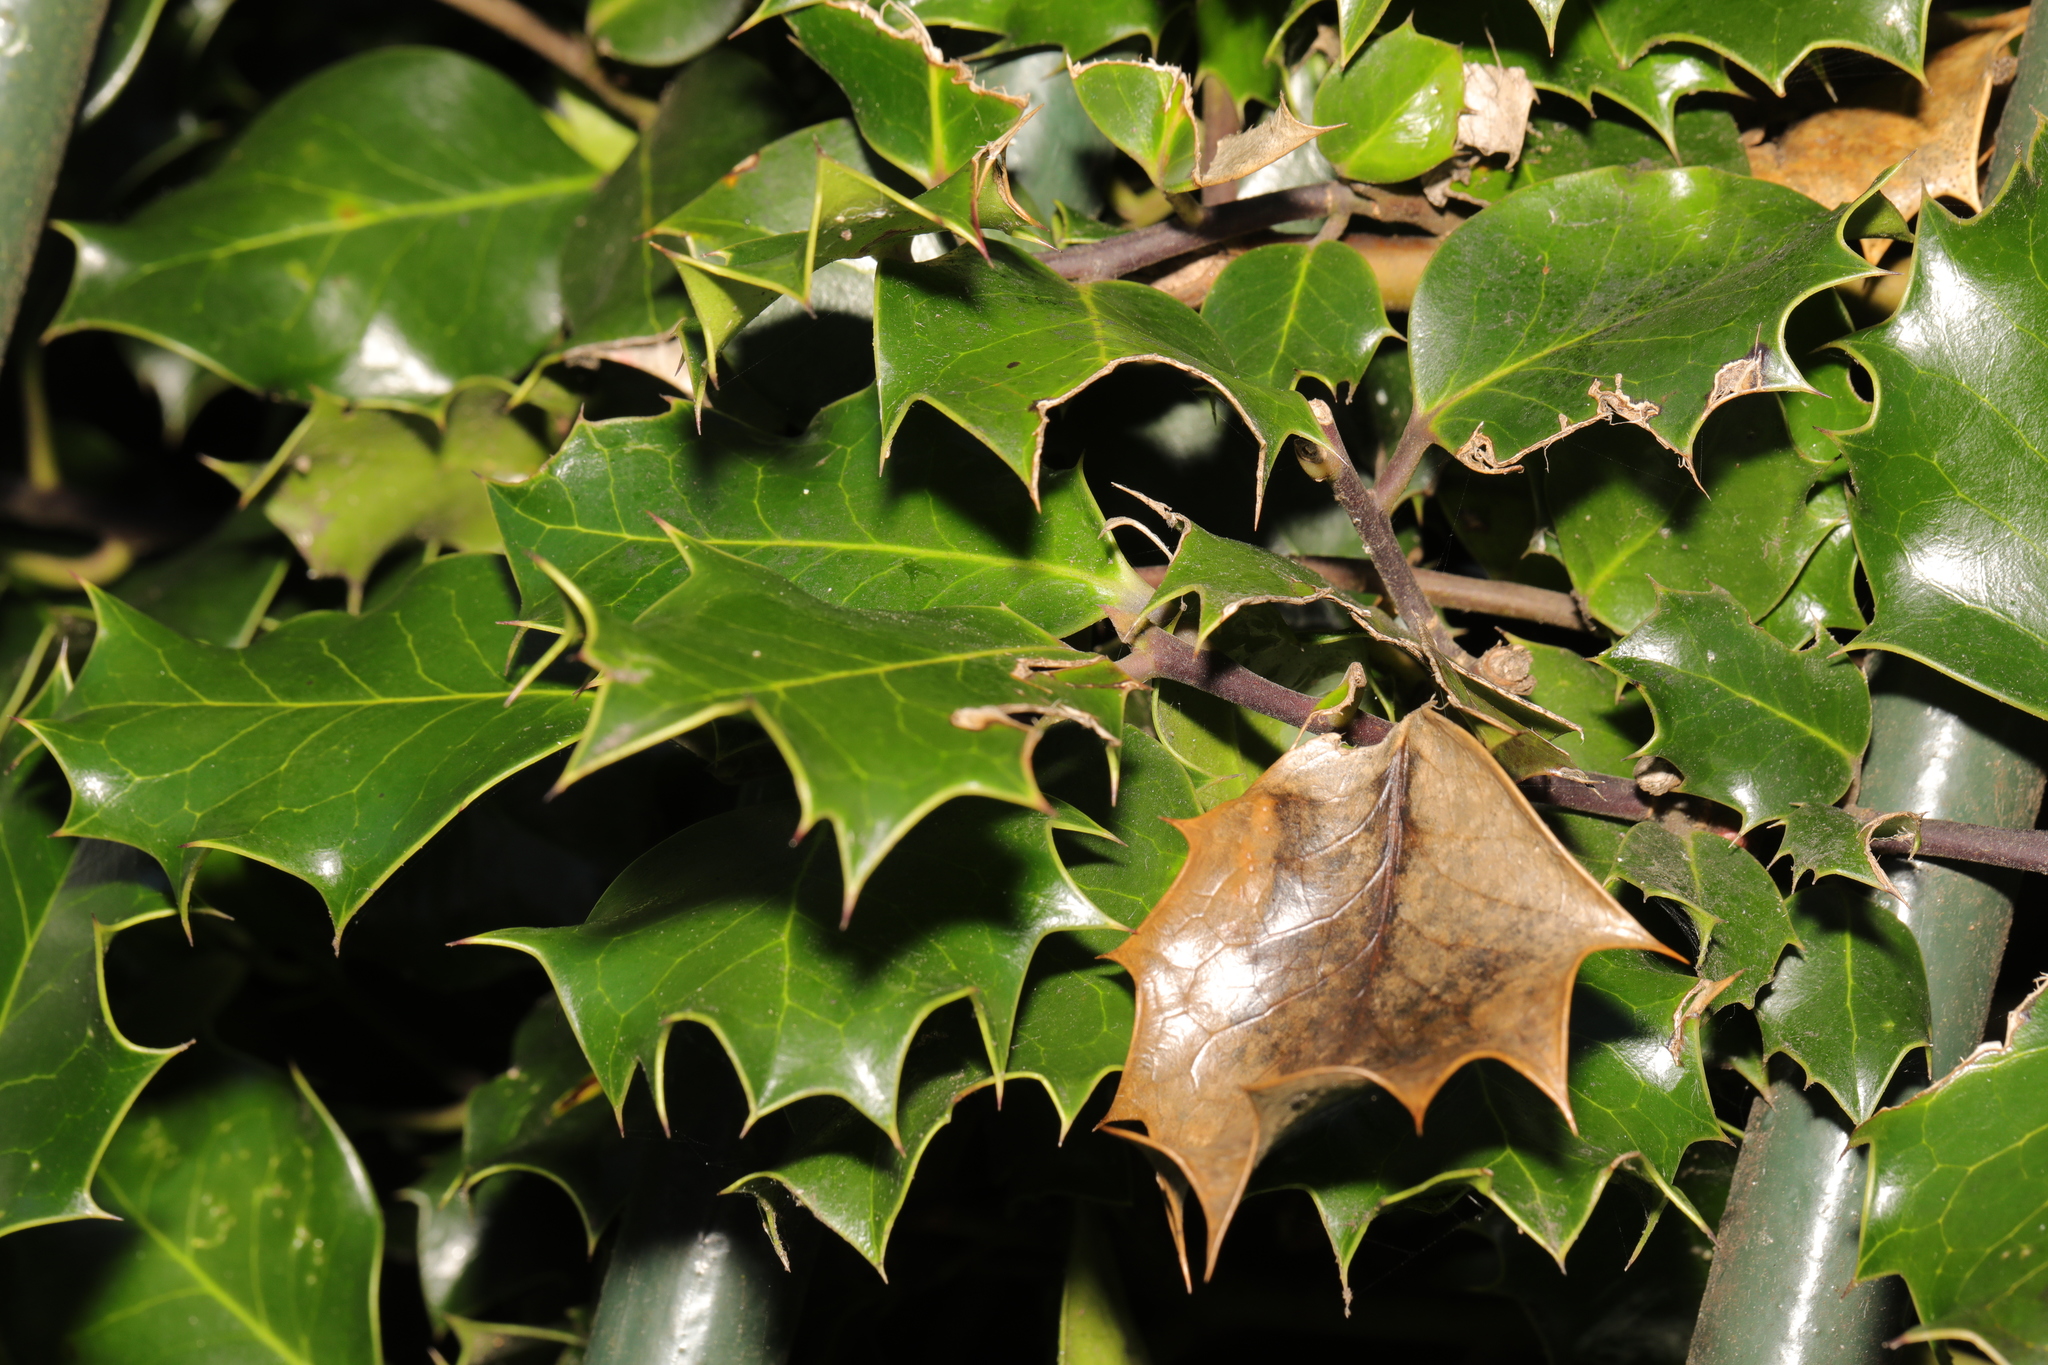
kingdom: Plantae
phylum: Tracheophyta
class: Magnoliopsida
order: Aquifoliales
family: Aquifoliaceae
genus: Ilex
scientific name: Ilex aquifolium
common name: English holly
